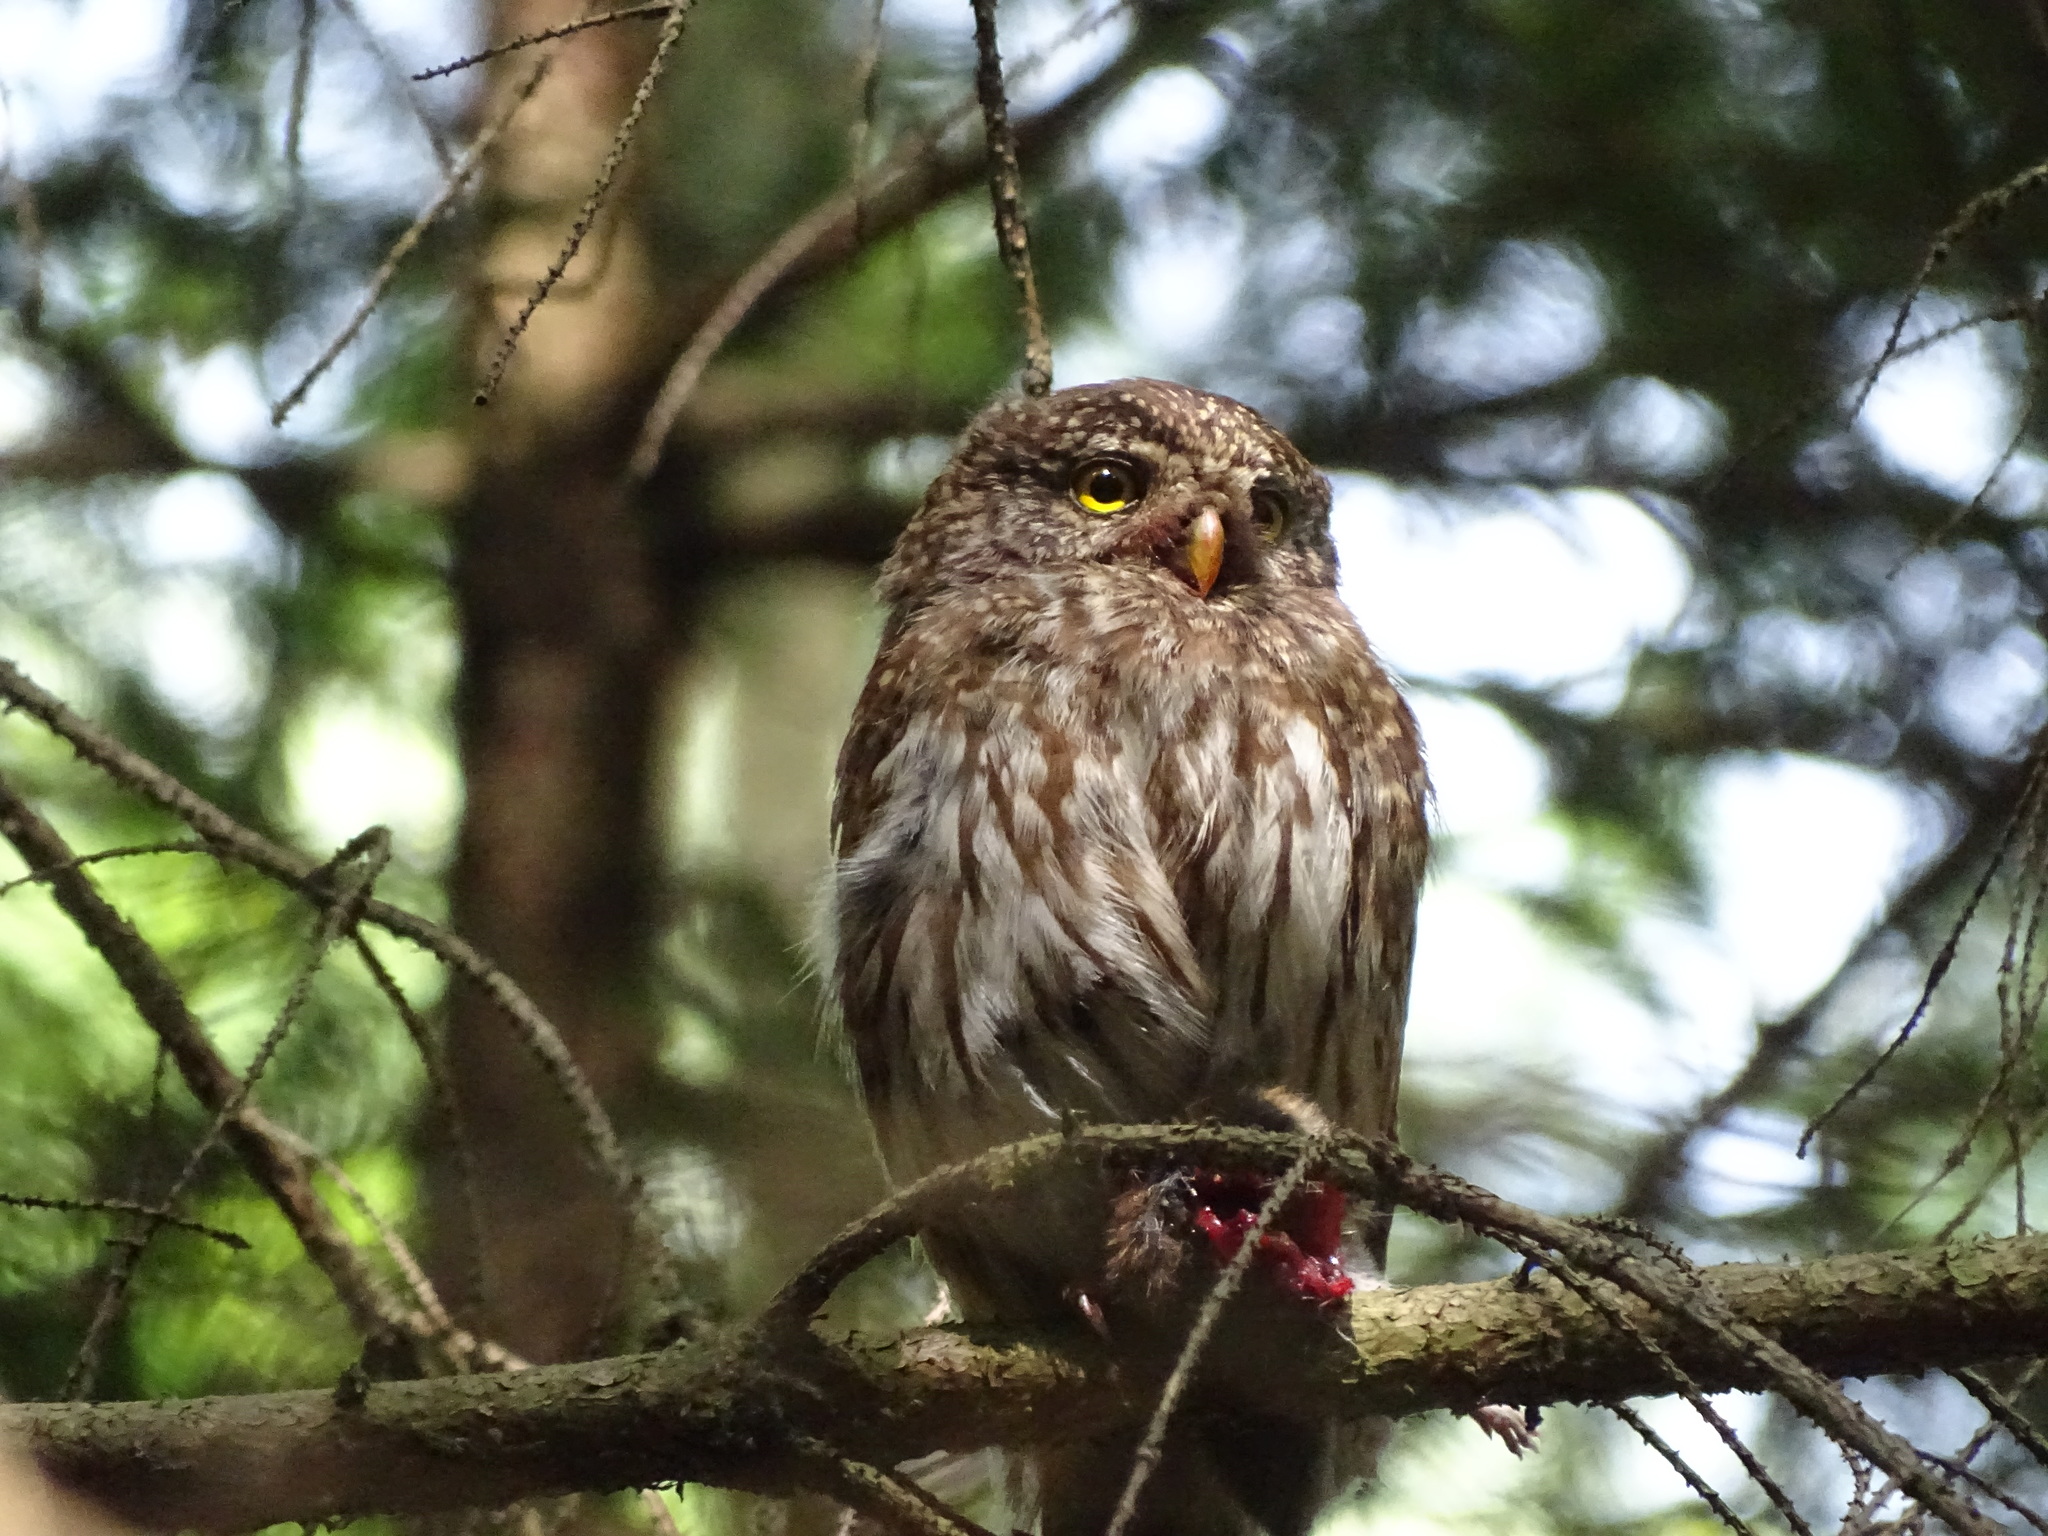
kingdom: Animalia
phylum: Chordata
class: Aves
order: Strigiformes
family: Strigidae
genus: Glaucidium
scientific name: Glaucidium passerinum
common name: Eurasian pygmy owl
